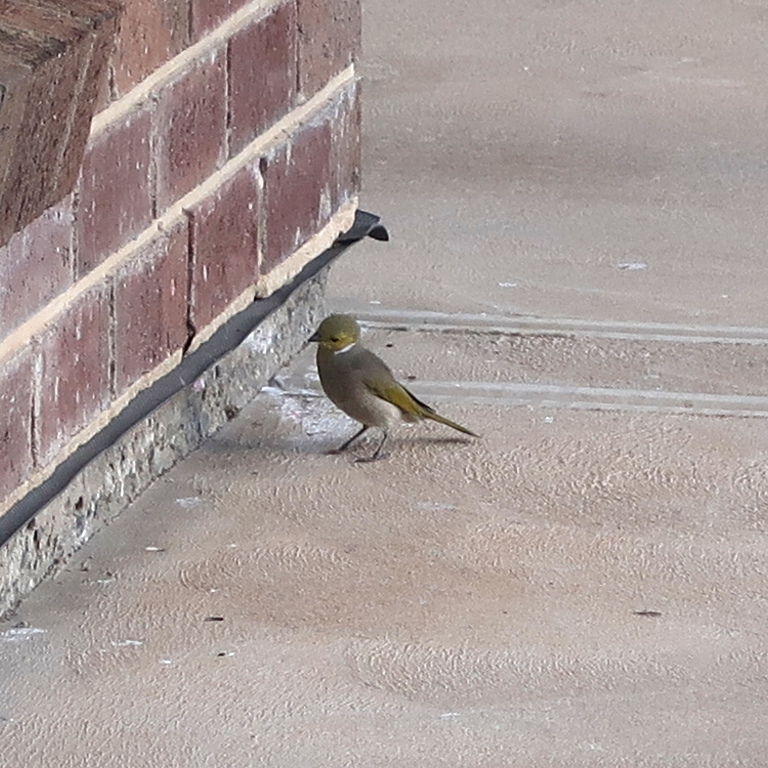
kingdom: Animalia
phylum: Chordata
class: Aves
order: Passeriformes
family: Meliphagidae
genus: Ptilotula
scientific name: Ptilotula penicillata
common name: White-plumed honeyeater
